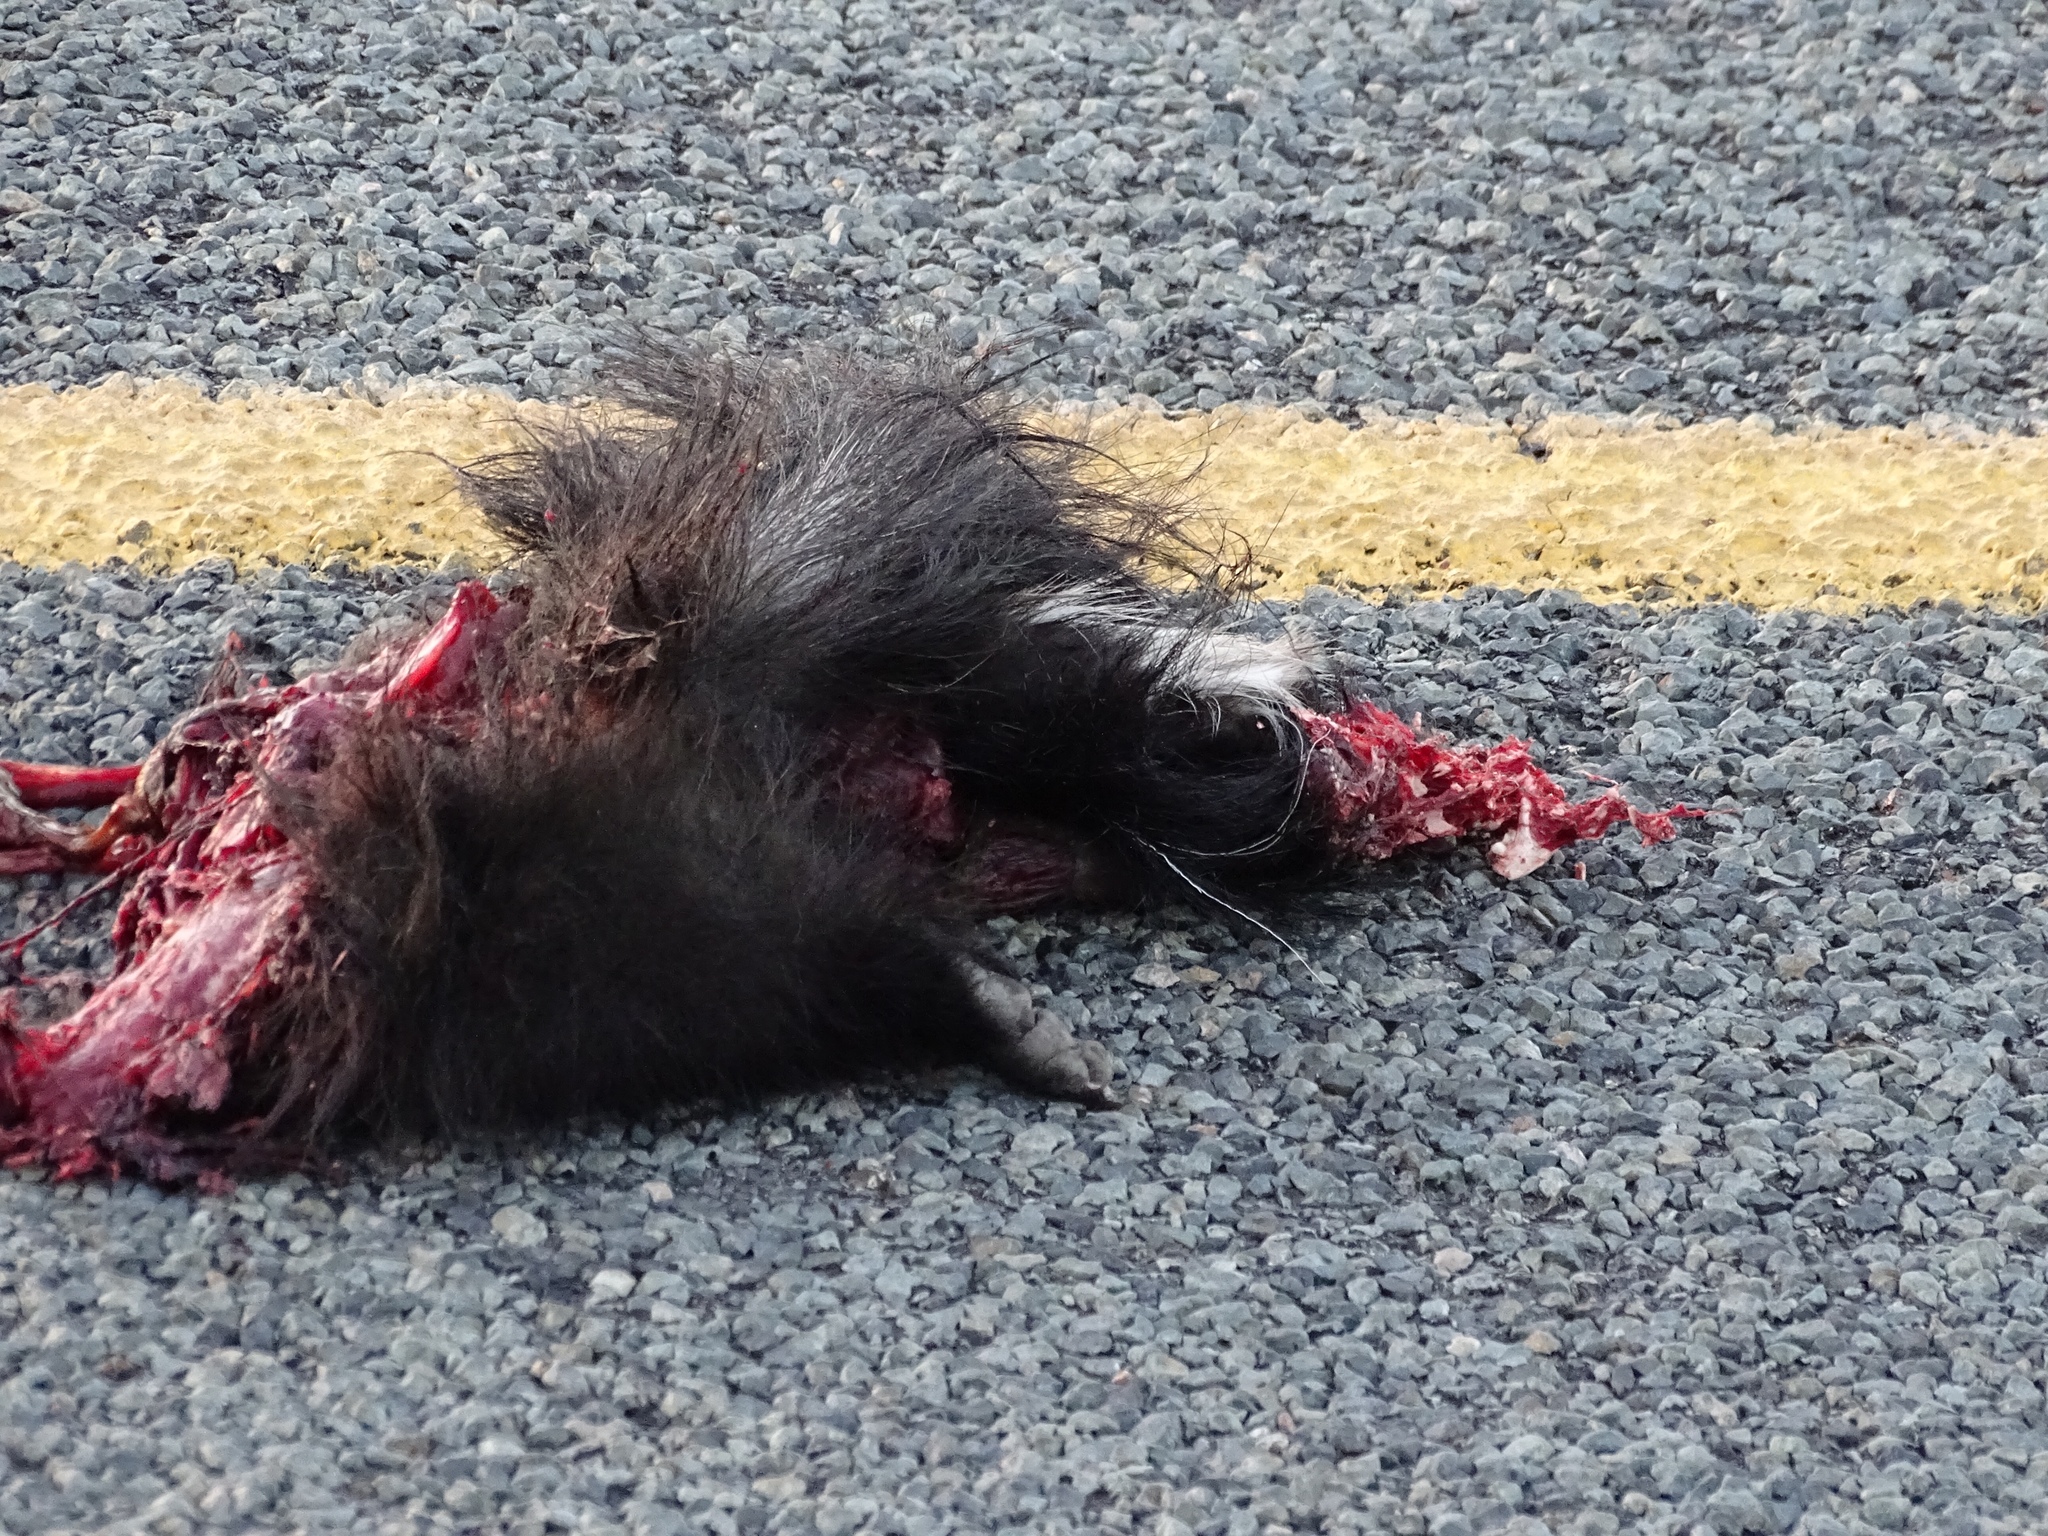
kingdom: Animalia
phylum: Chordata
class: Mammalia
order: Carnivora
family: Mephitidae
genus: Mephitis
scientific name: Mephitis mephitis
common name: Striped skunk
